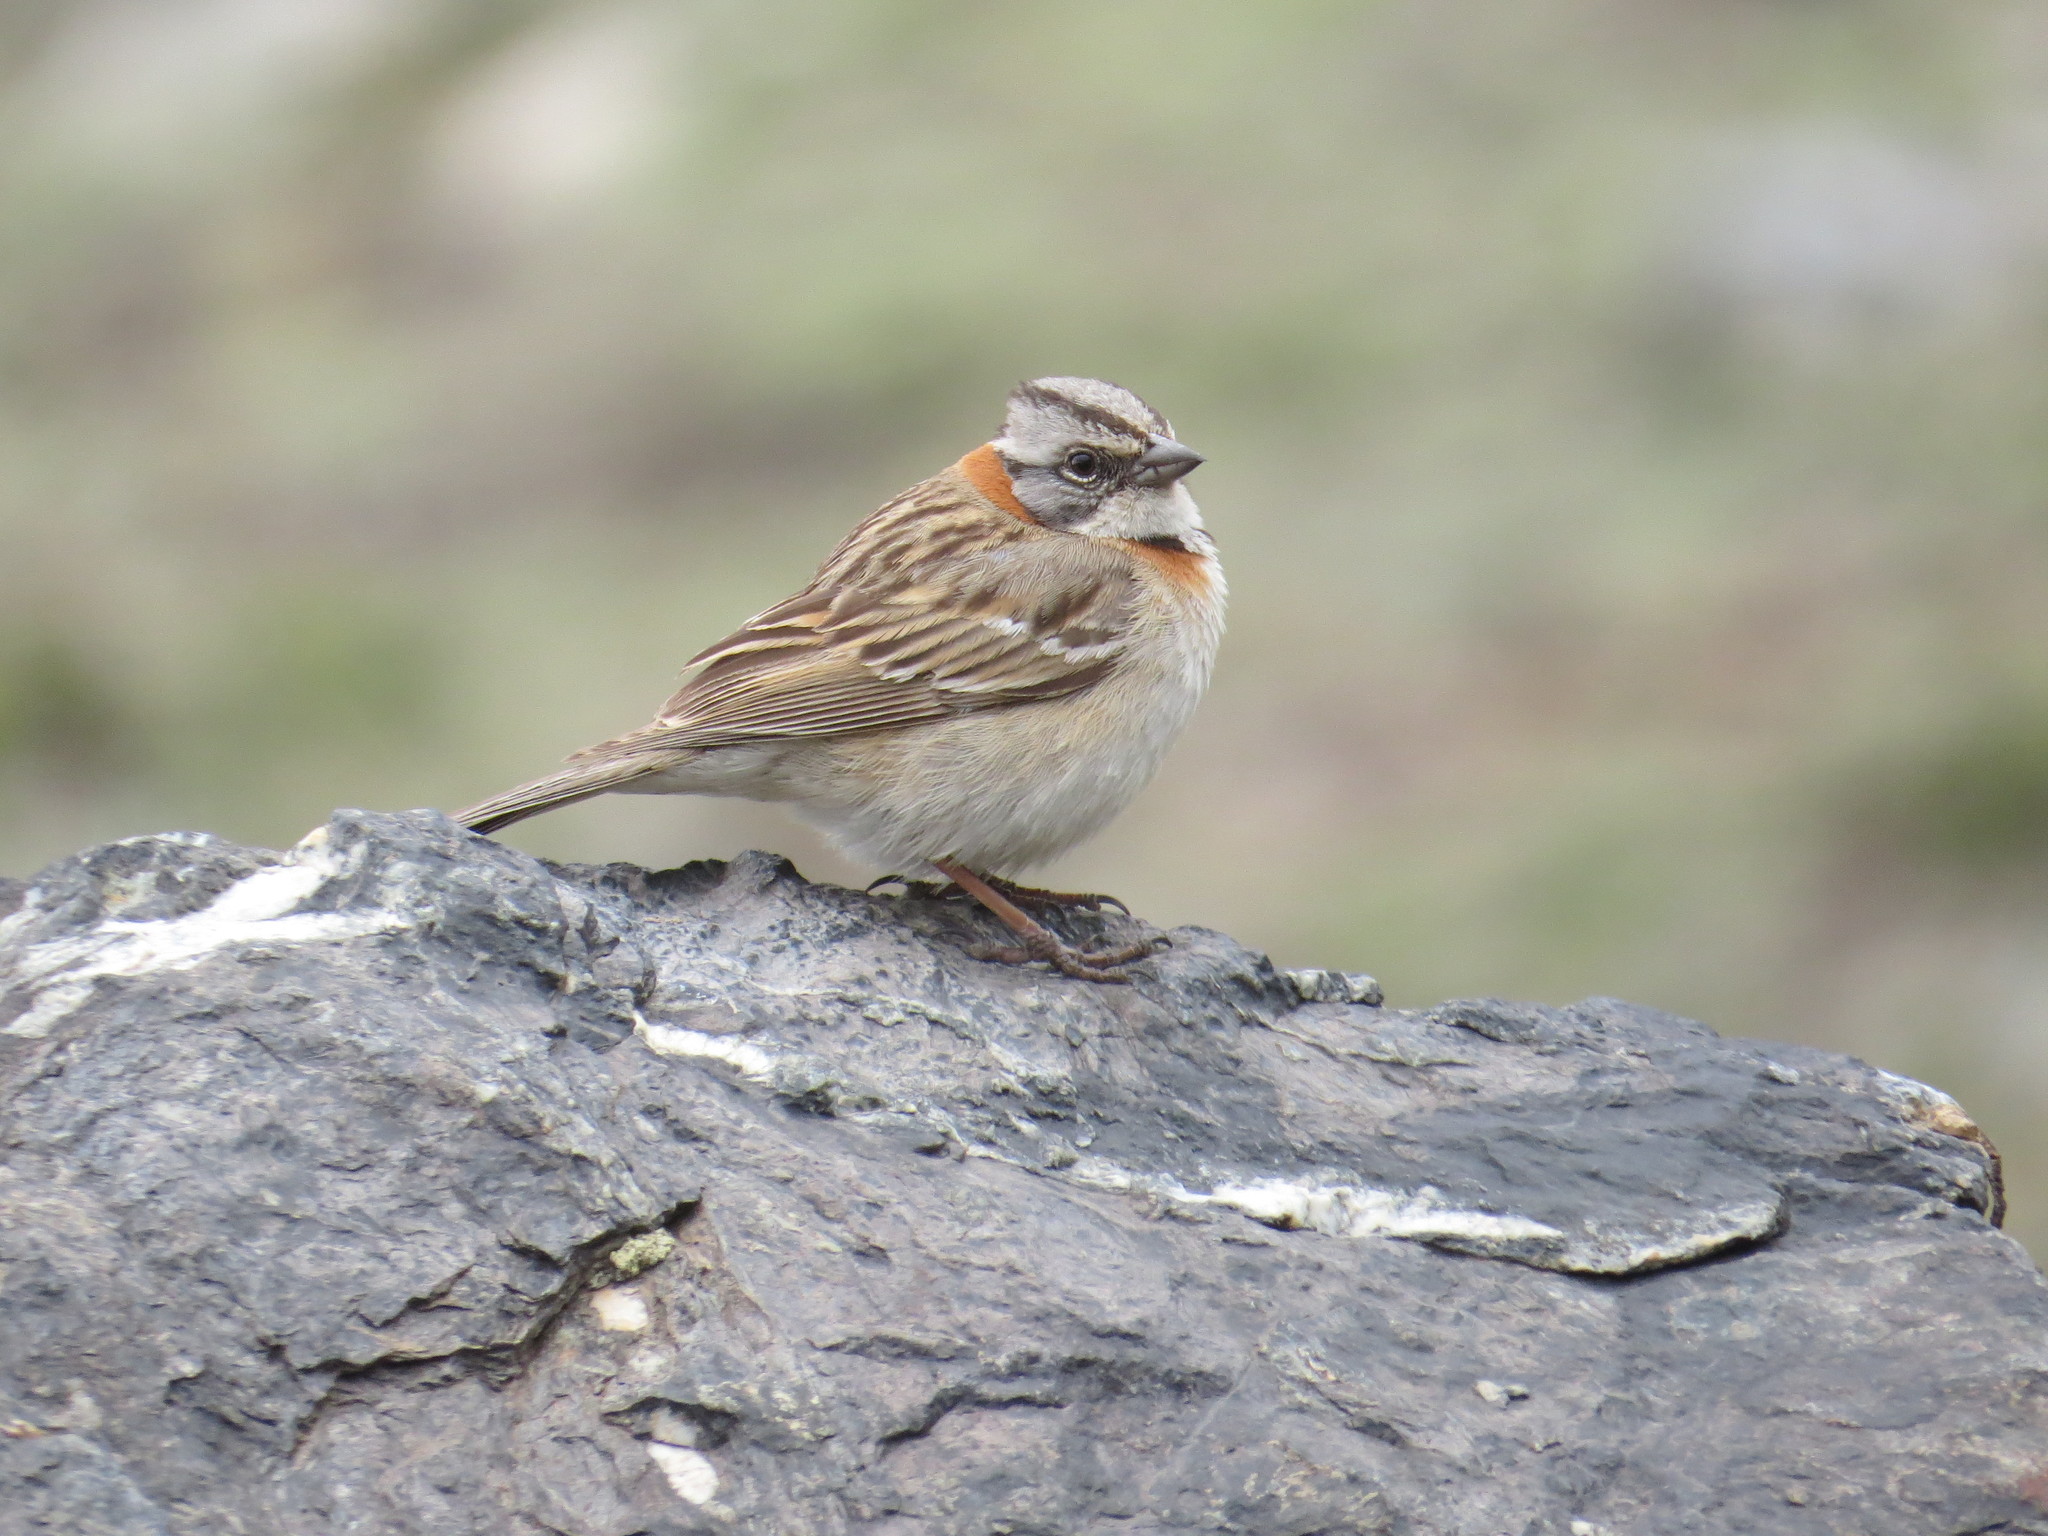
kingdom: Animalia
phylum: Chordata
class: Aves
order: Passeriformes
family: Passerellidae
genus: Zonotrichia
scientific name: Zonotrichia capensis
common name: Rufous-collared sparrow
